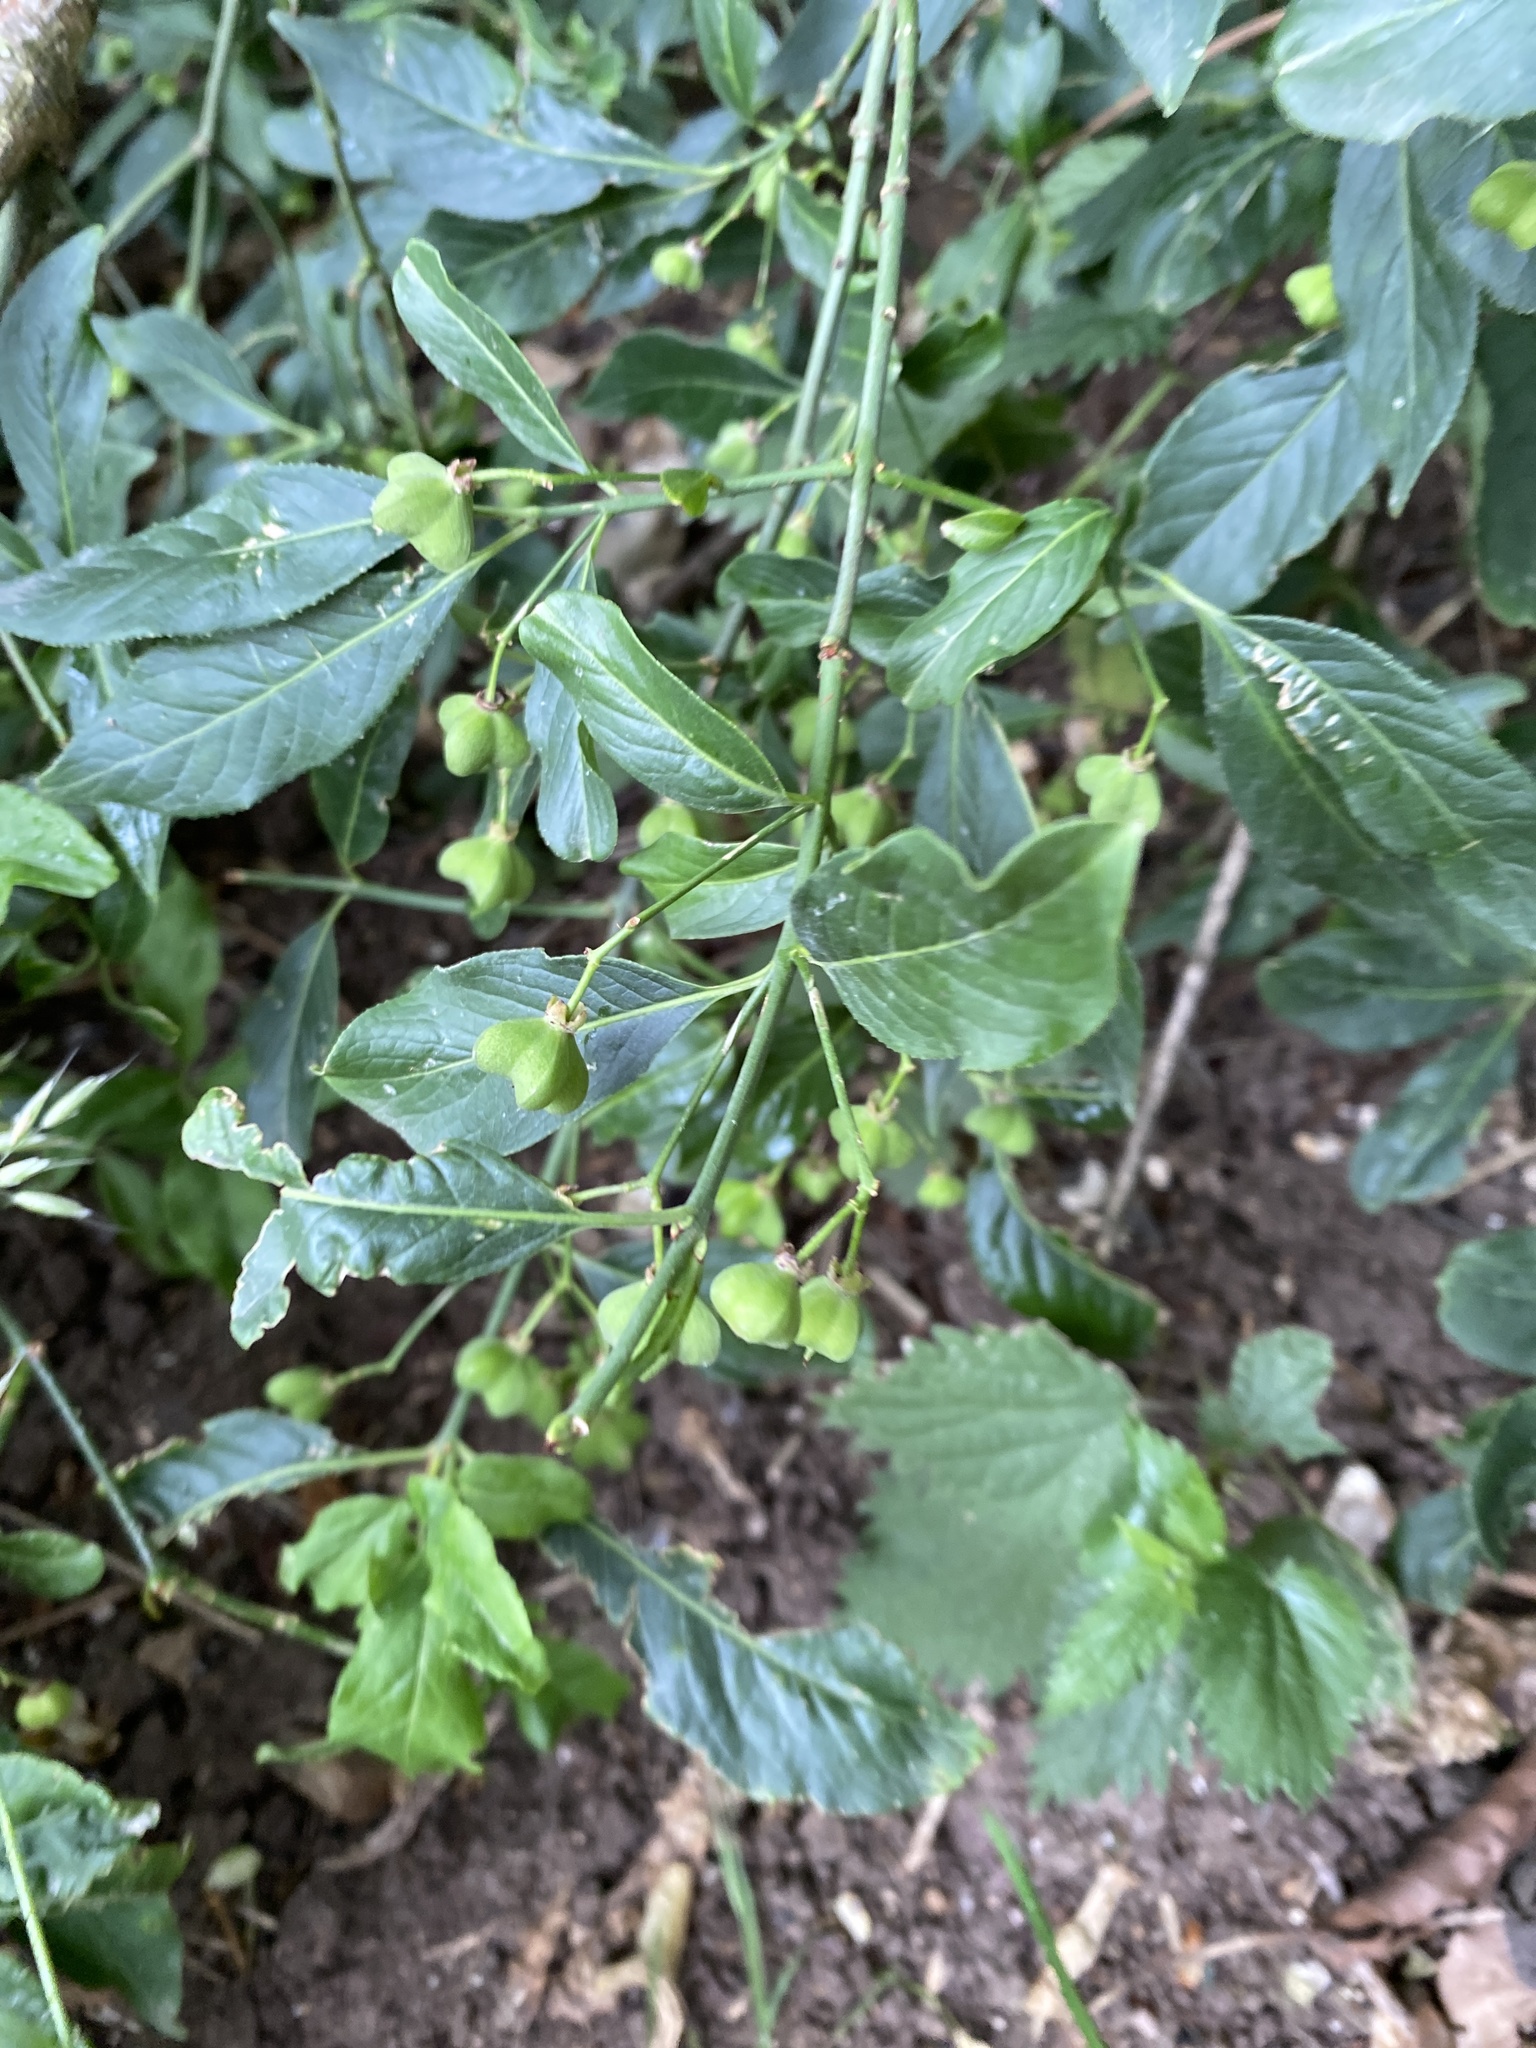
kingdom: Plantae
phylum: Tracheophyta
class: Magnoliopsida
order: Celastrales
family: Celastraceae
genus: Euonymus
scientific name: Euonymus europaeus
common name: Spindle
